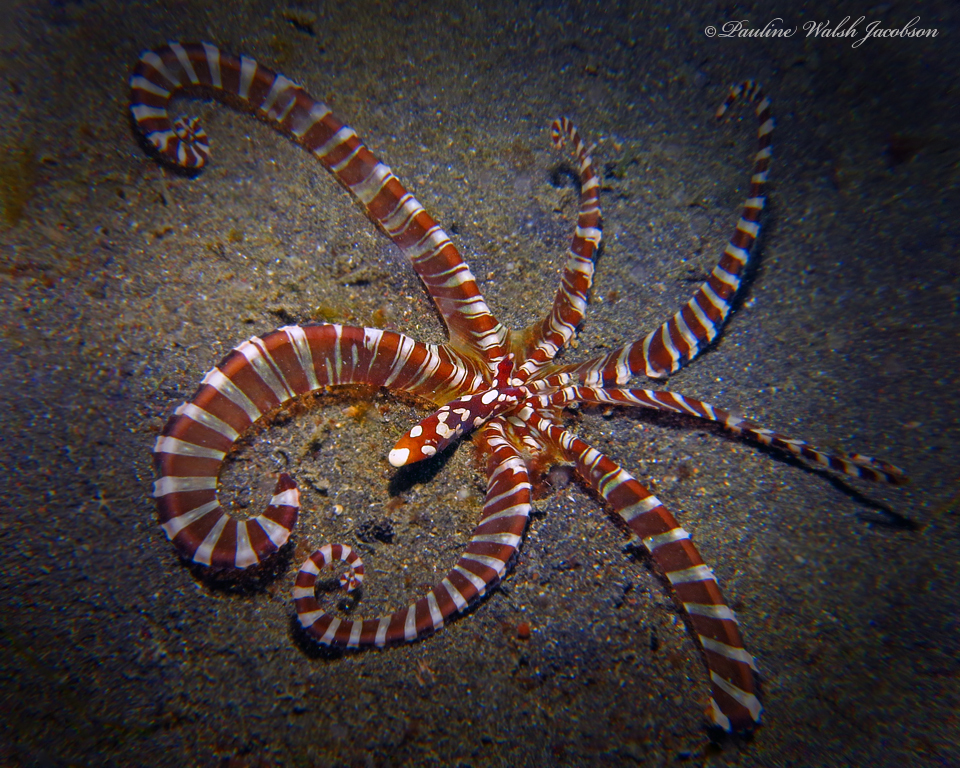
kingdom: Animalia
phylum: Mollusca
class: Cephalopoda
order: Octopoda
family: Octopodidae
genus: Wunderpus
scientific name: Wunderpus photogenicus
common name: Wunderpus
